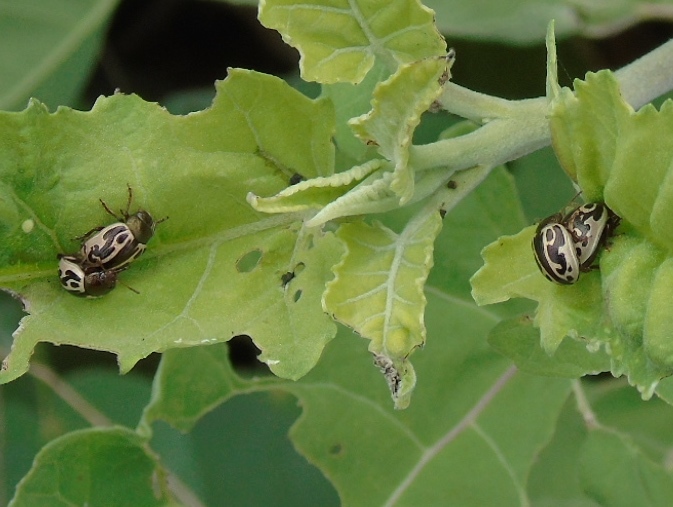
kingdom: Animalia
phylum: Arthropoda
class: Insecta
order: Coleoptera
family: Chrysomelidae
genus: Calligrapha
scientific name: Calligrapha
